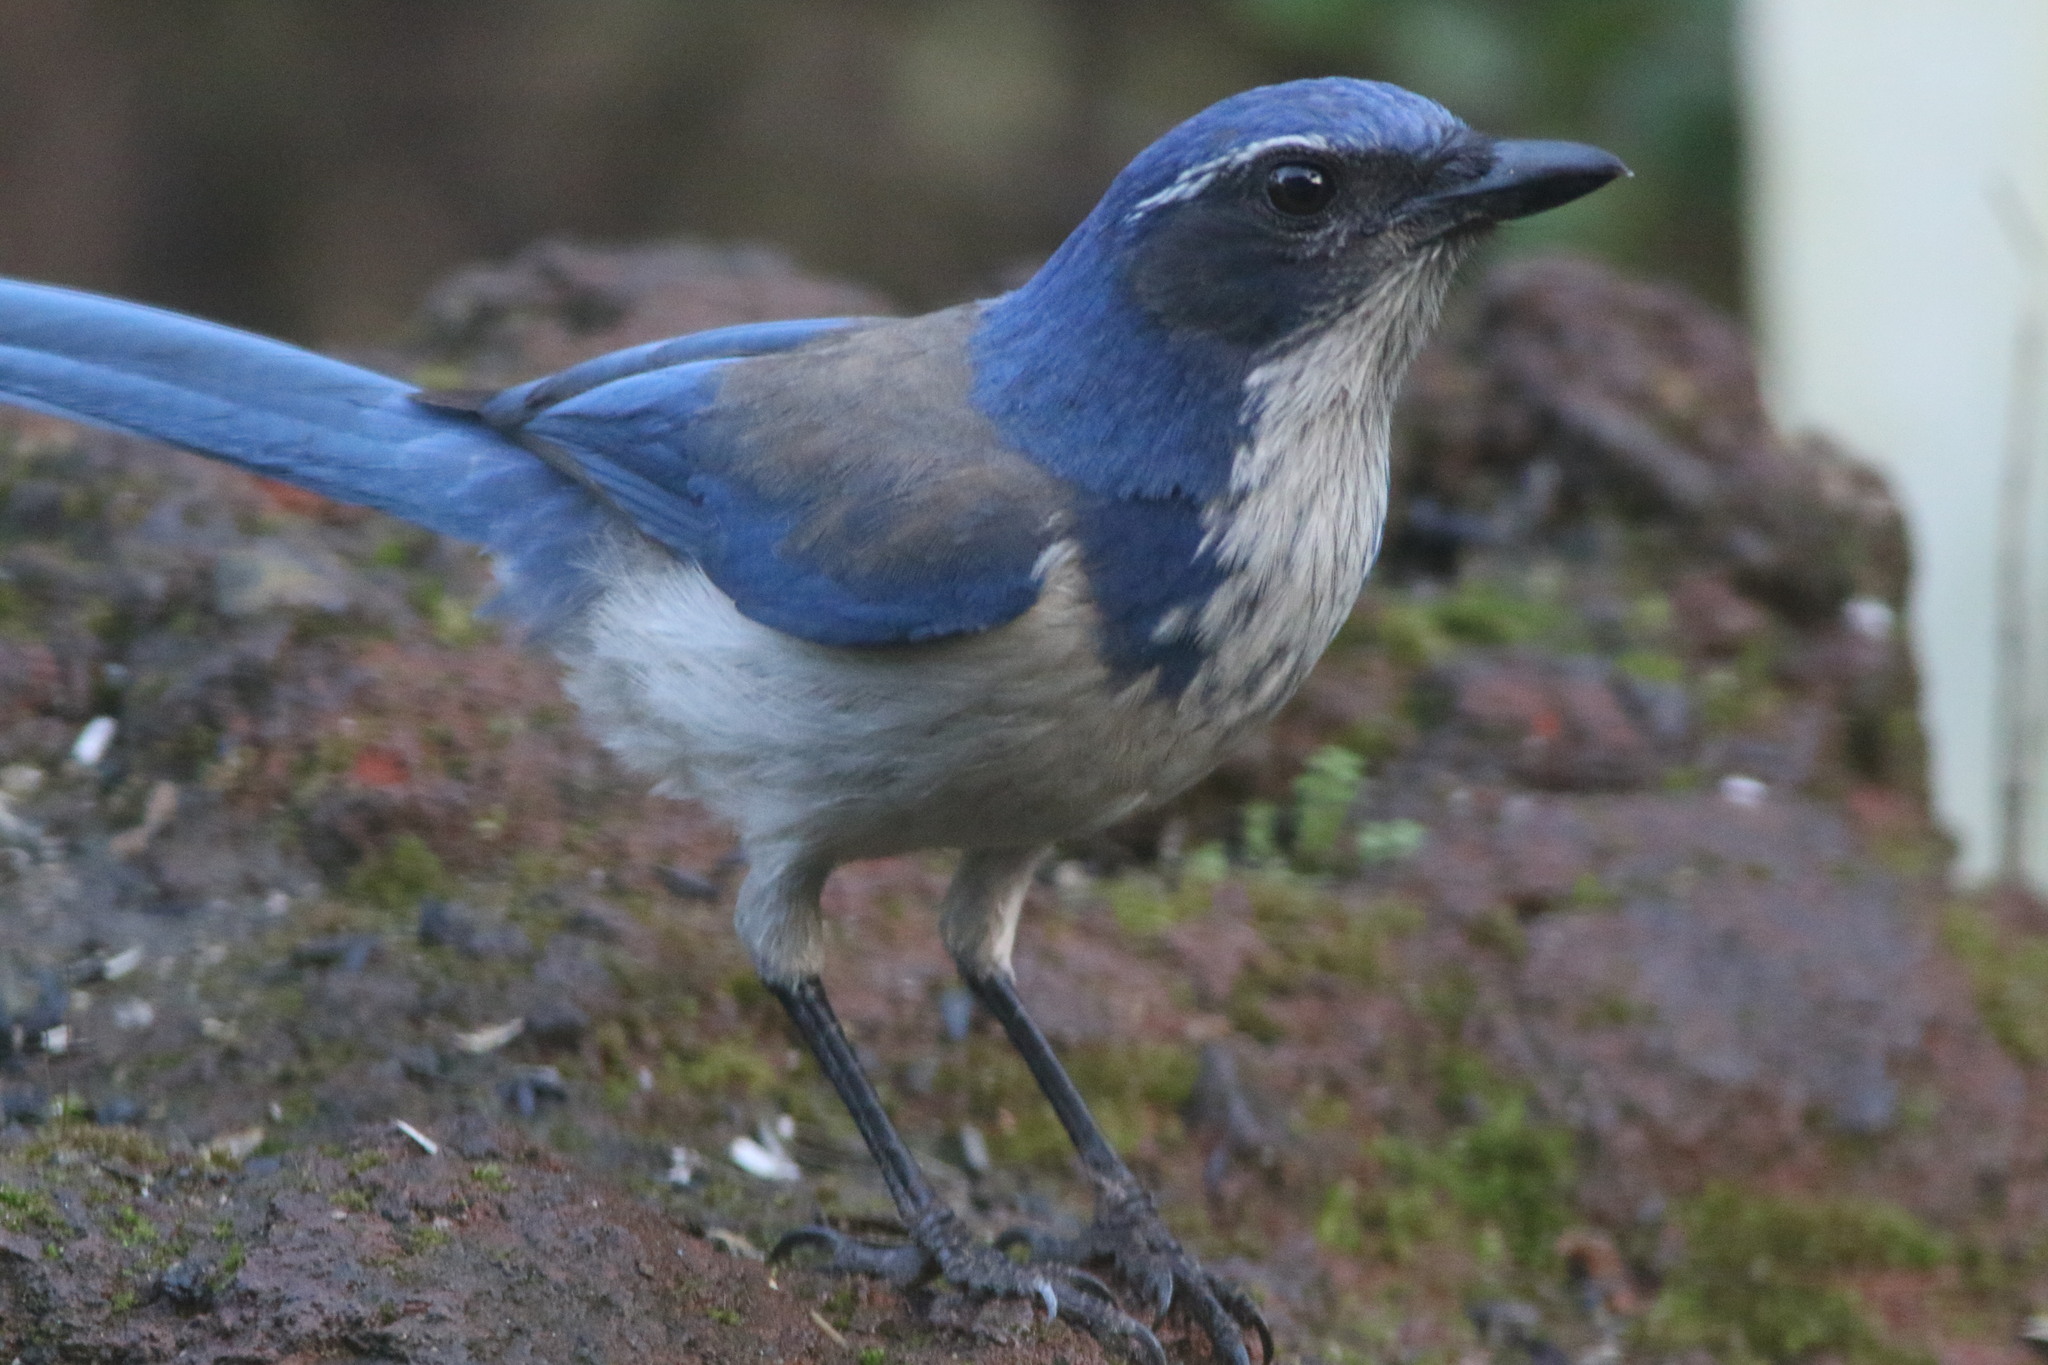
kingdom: Animalia
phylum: Chordata
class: Aves
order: Passeriformes
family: Corvidae
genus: Aphelocoma
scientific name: Aphelocoma californica
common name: California scrub-jay
